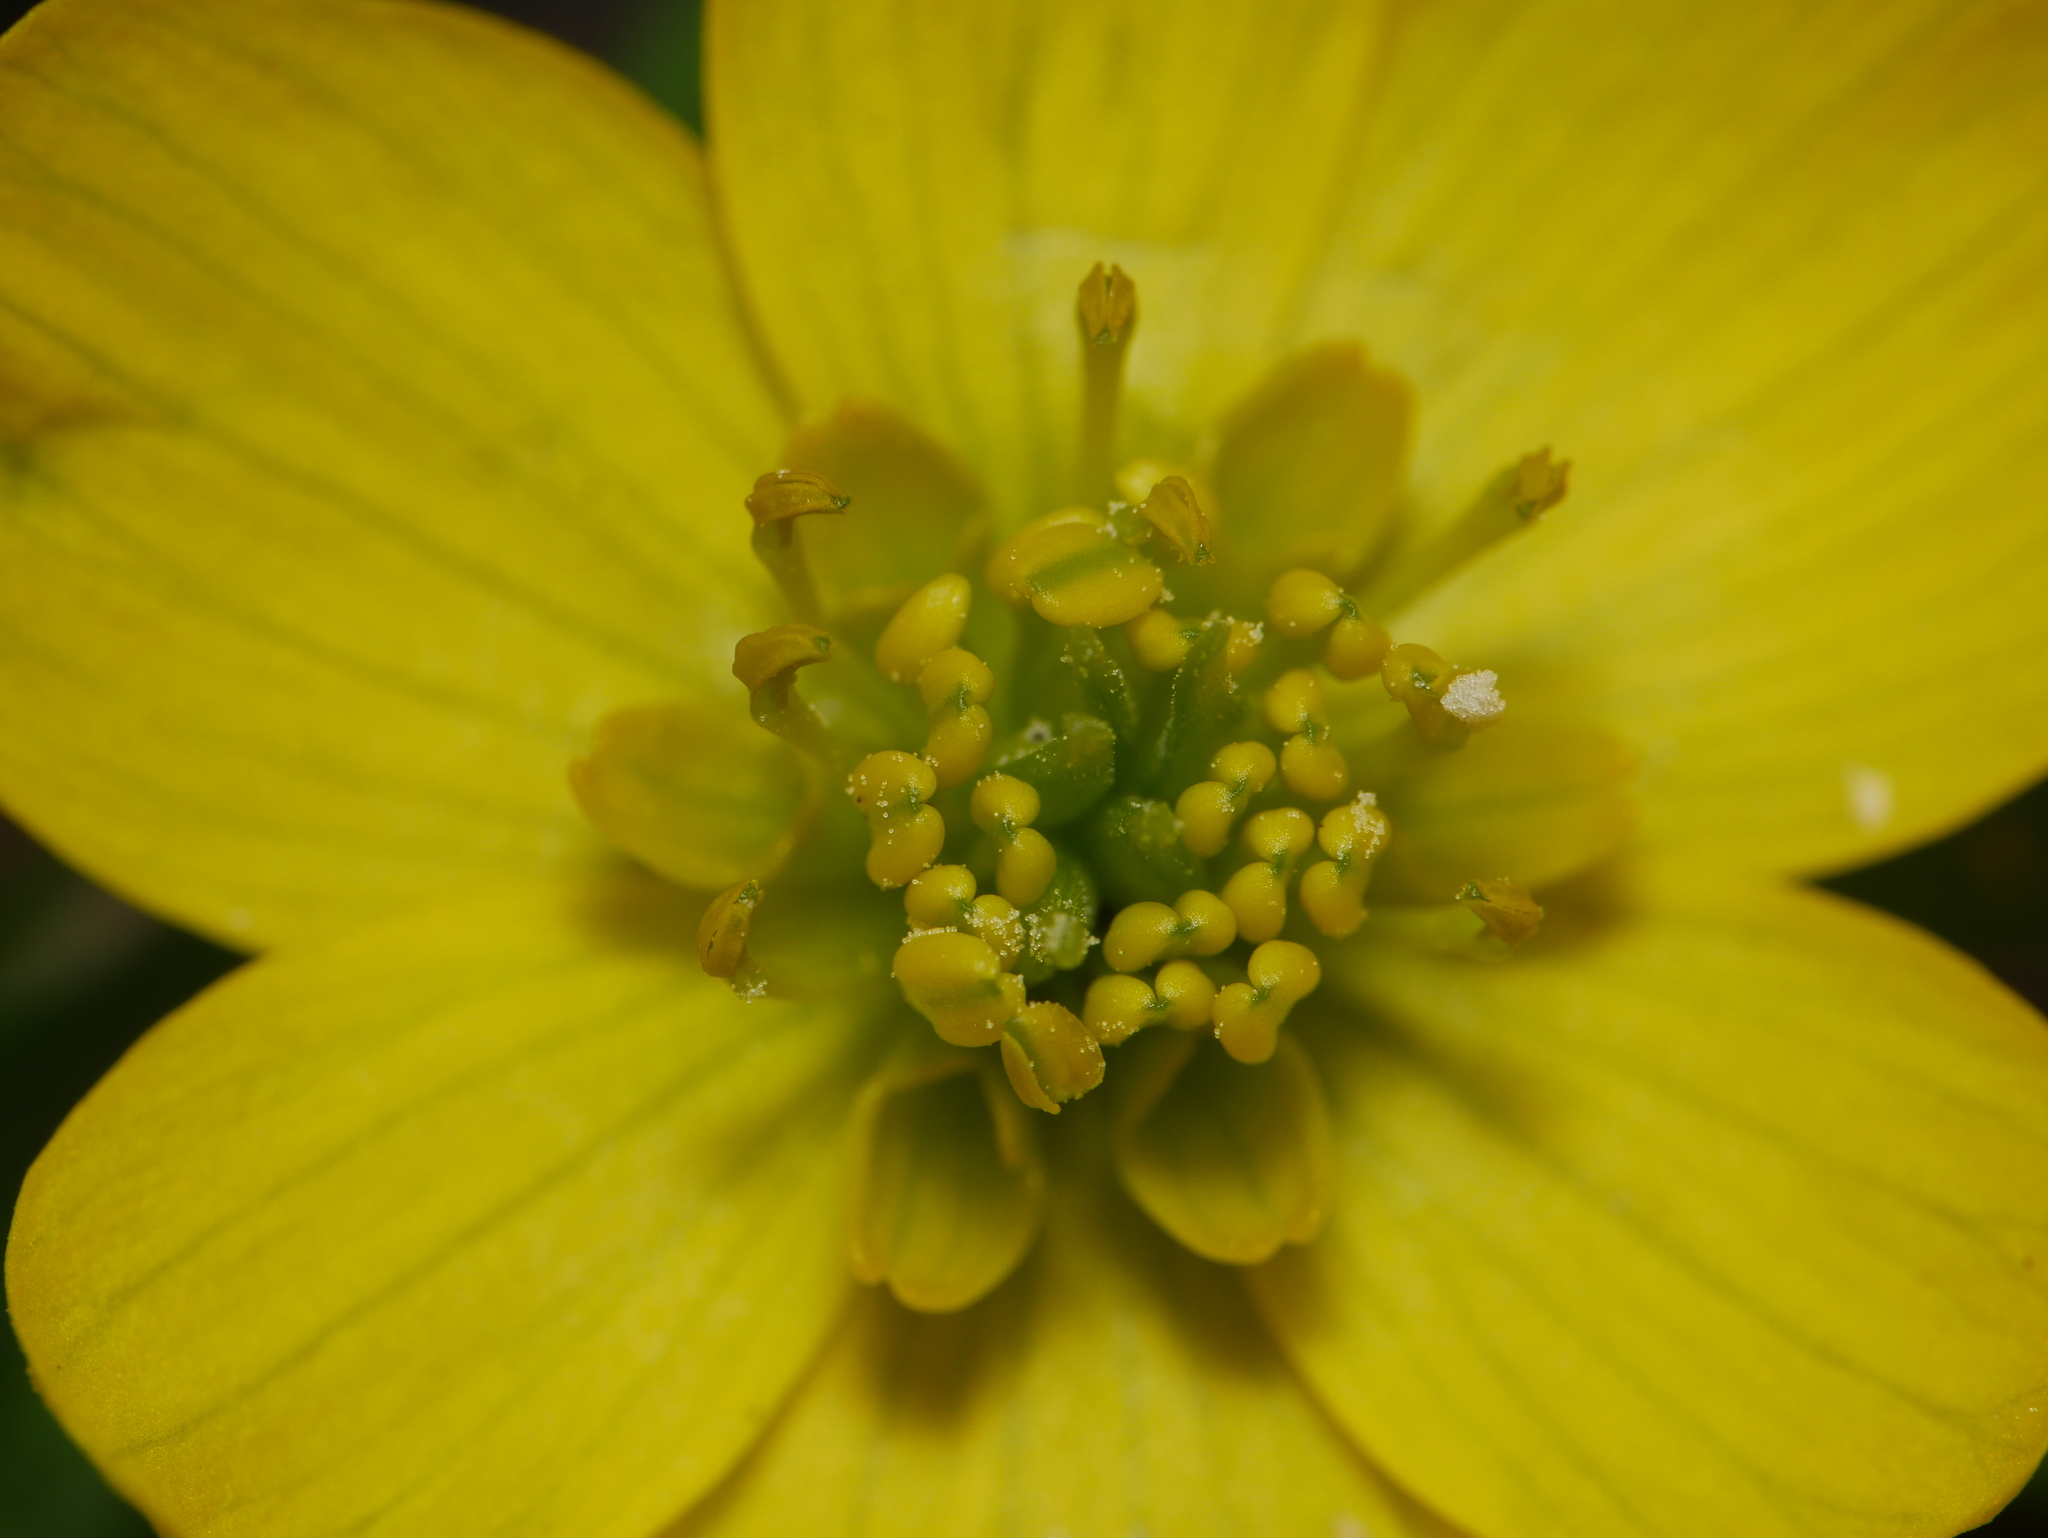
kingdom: Plantae
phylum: Tracheophyta
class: Magnoliopsida
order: Ranunculales
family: Ranunculaceae
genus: Eranthis
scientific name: Eranthis hyemalis
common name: Winter aconite
